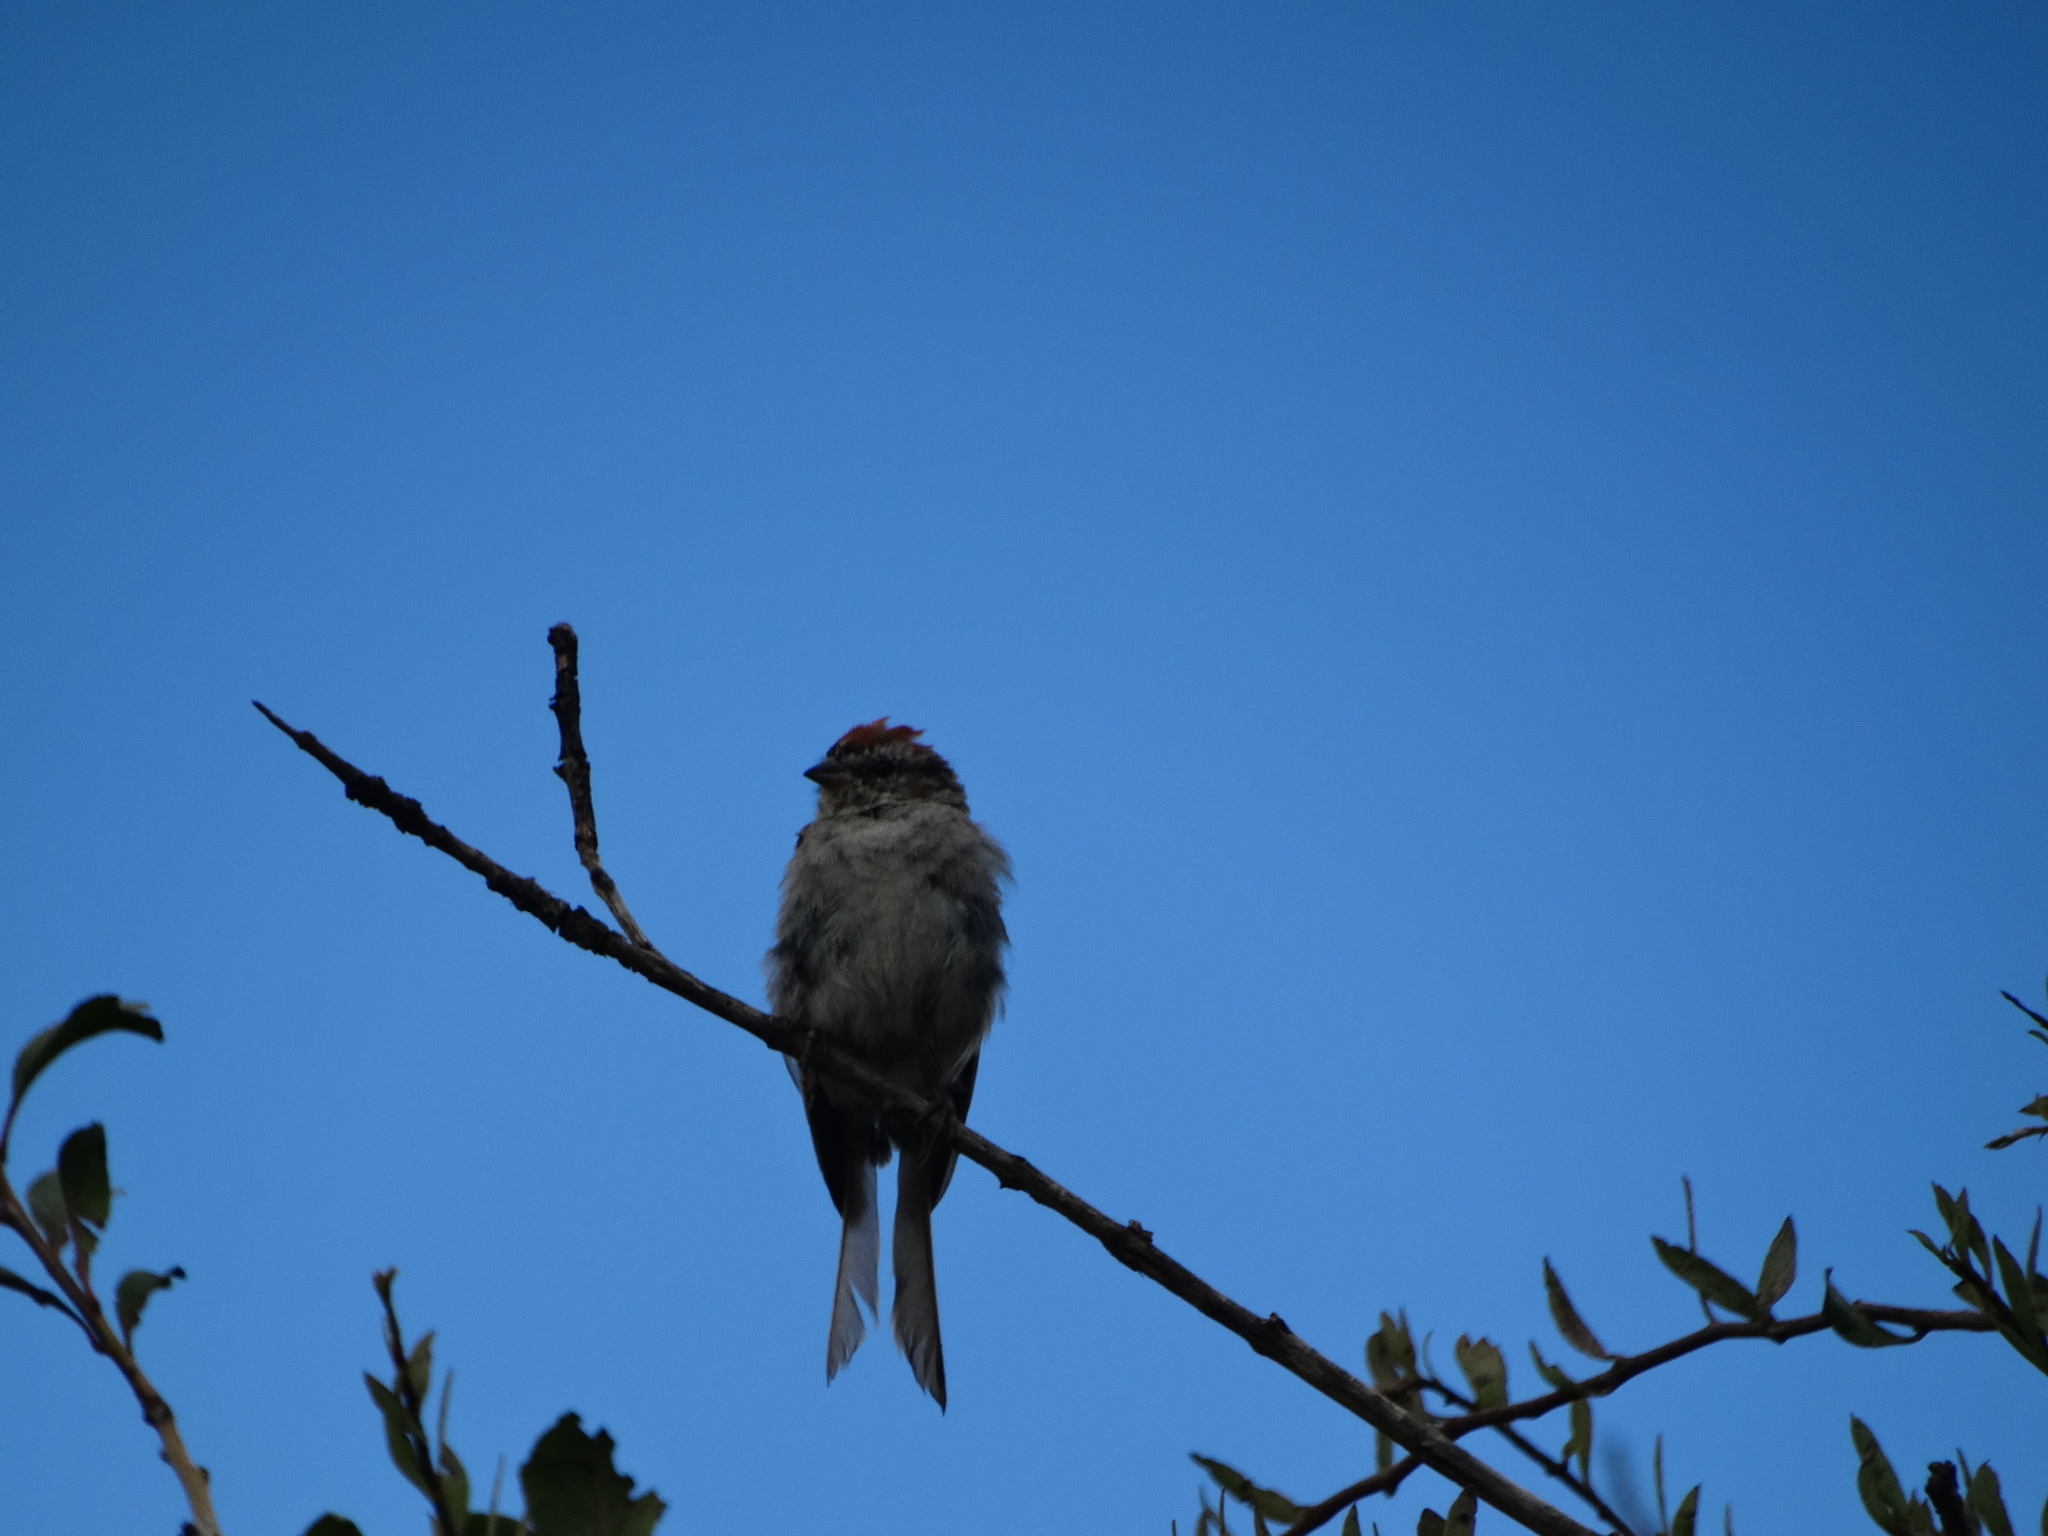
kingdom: Animalia
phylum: Chordata
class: Aves
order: Passeriformes
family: Passerellidae
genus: Spizella
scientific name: Spizella passerina
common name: Chipping sparrow
